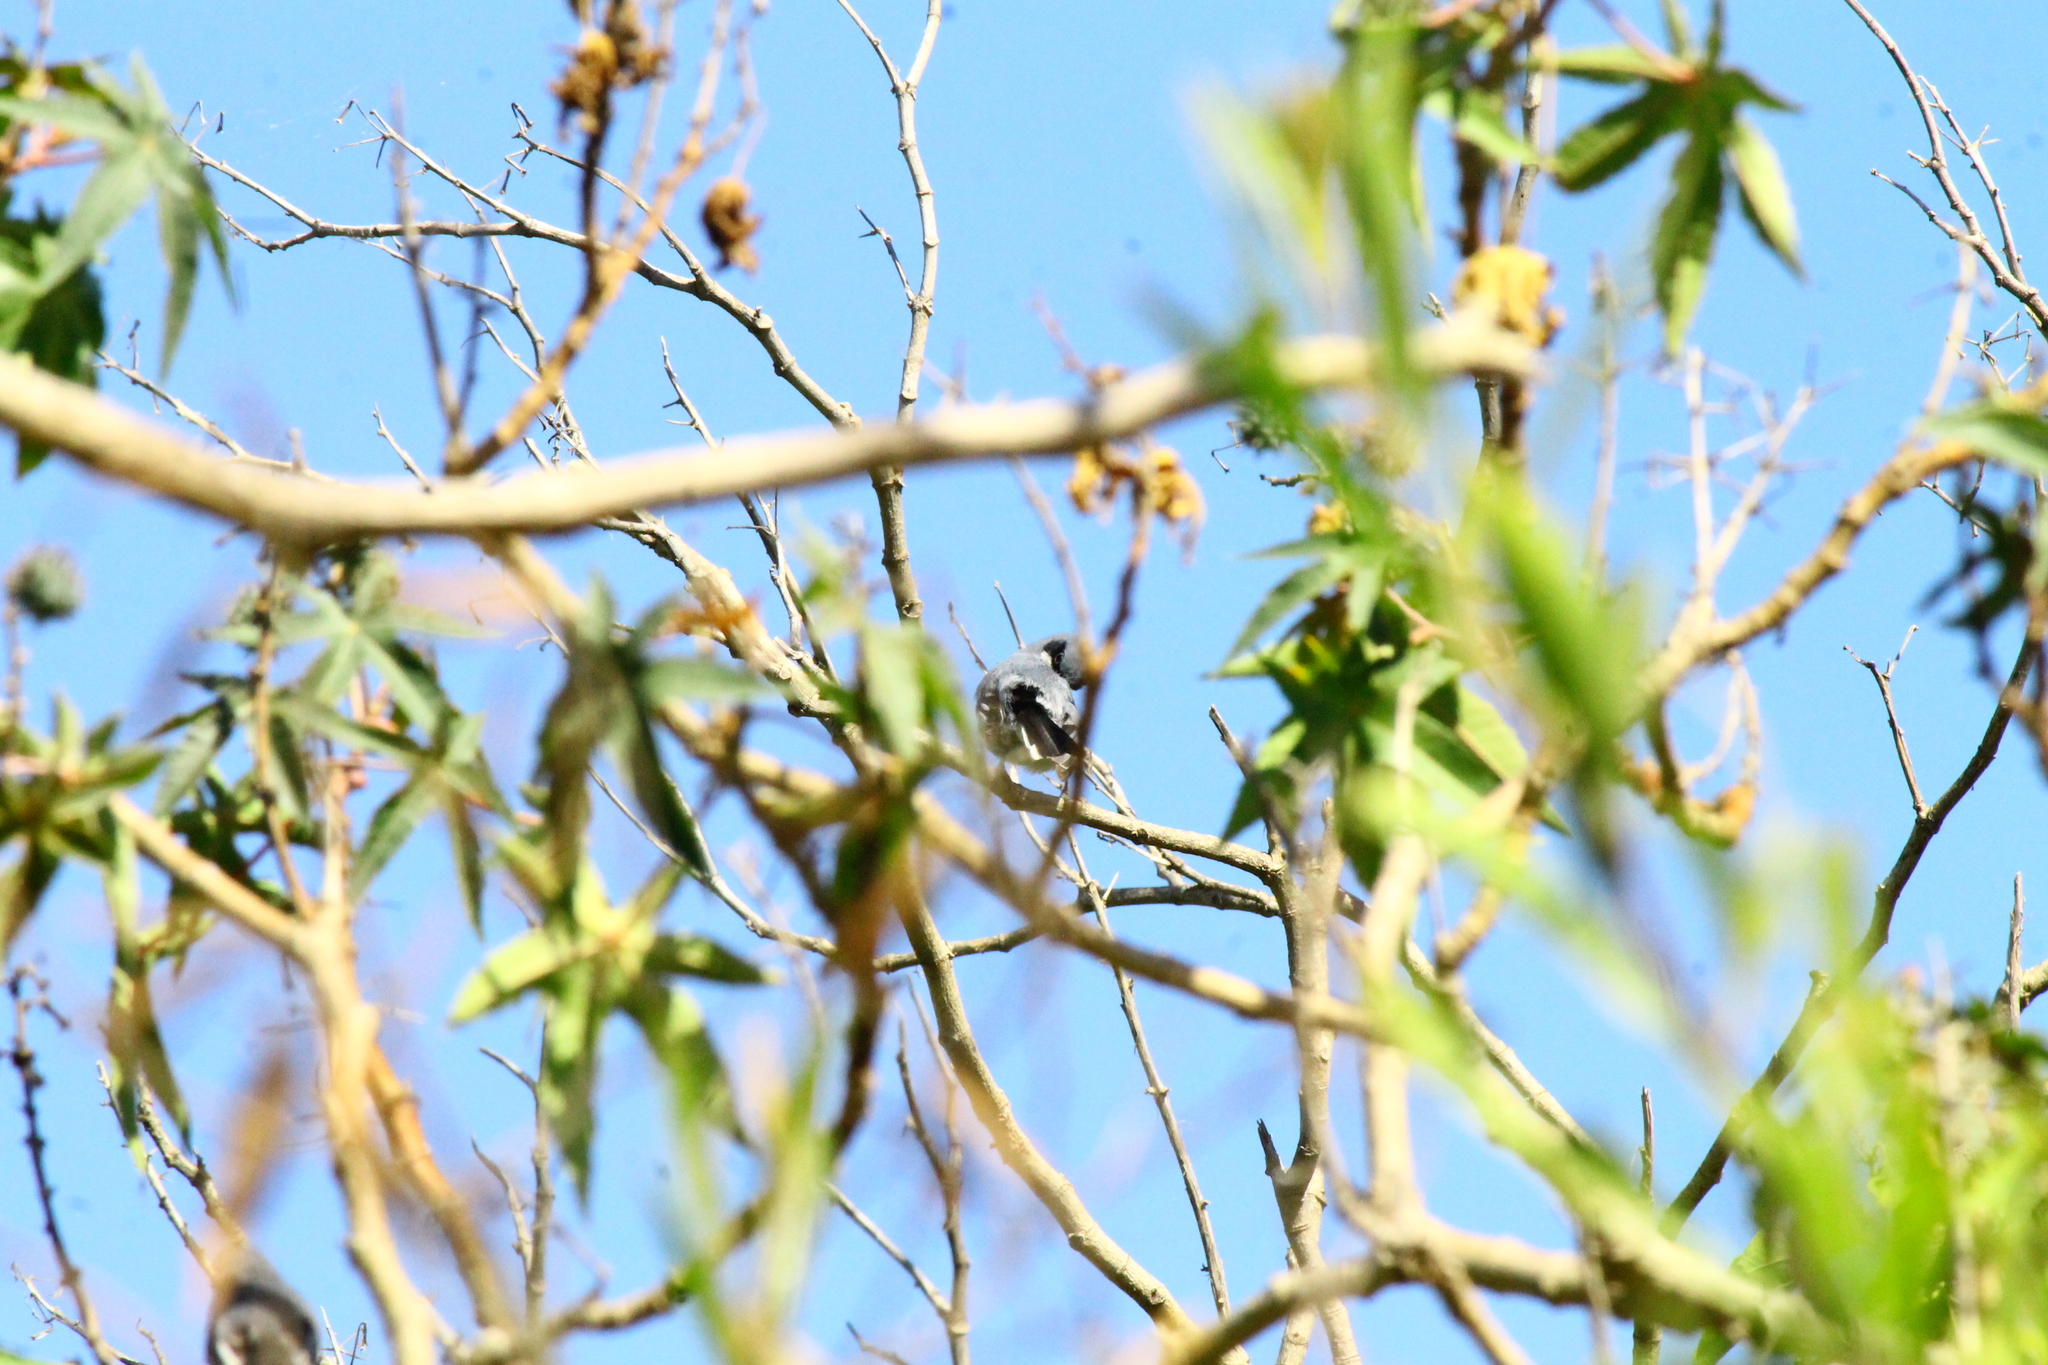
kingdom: Animalia
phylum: Chordata
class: Aves
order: Passeriformes
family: Polioptilidae
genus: Polioptila
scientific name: Polioptila dumicola
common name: Masked gnatcatcher
